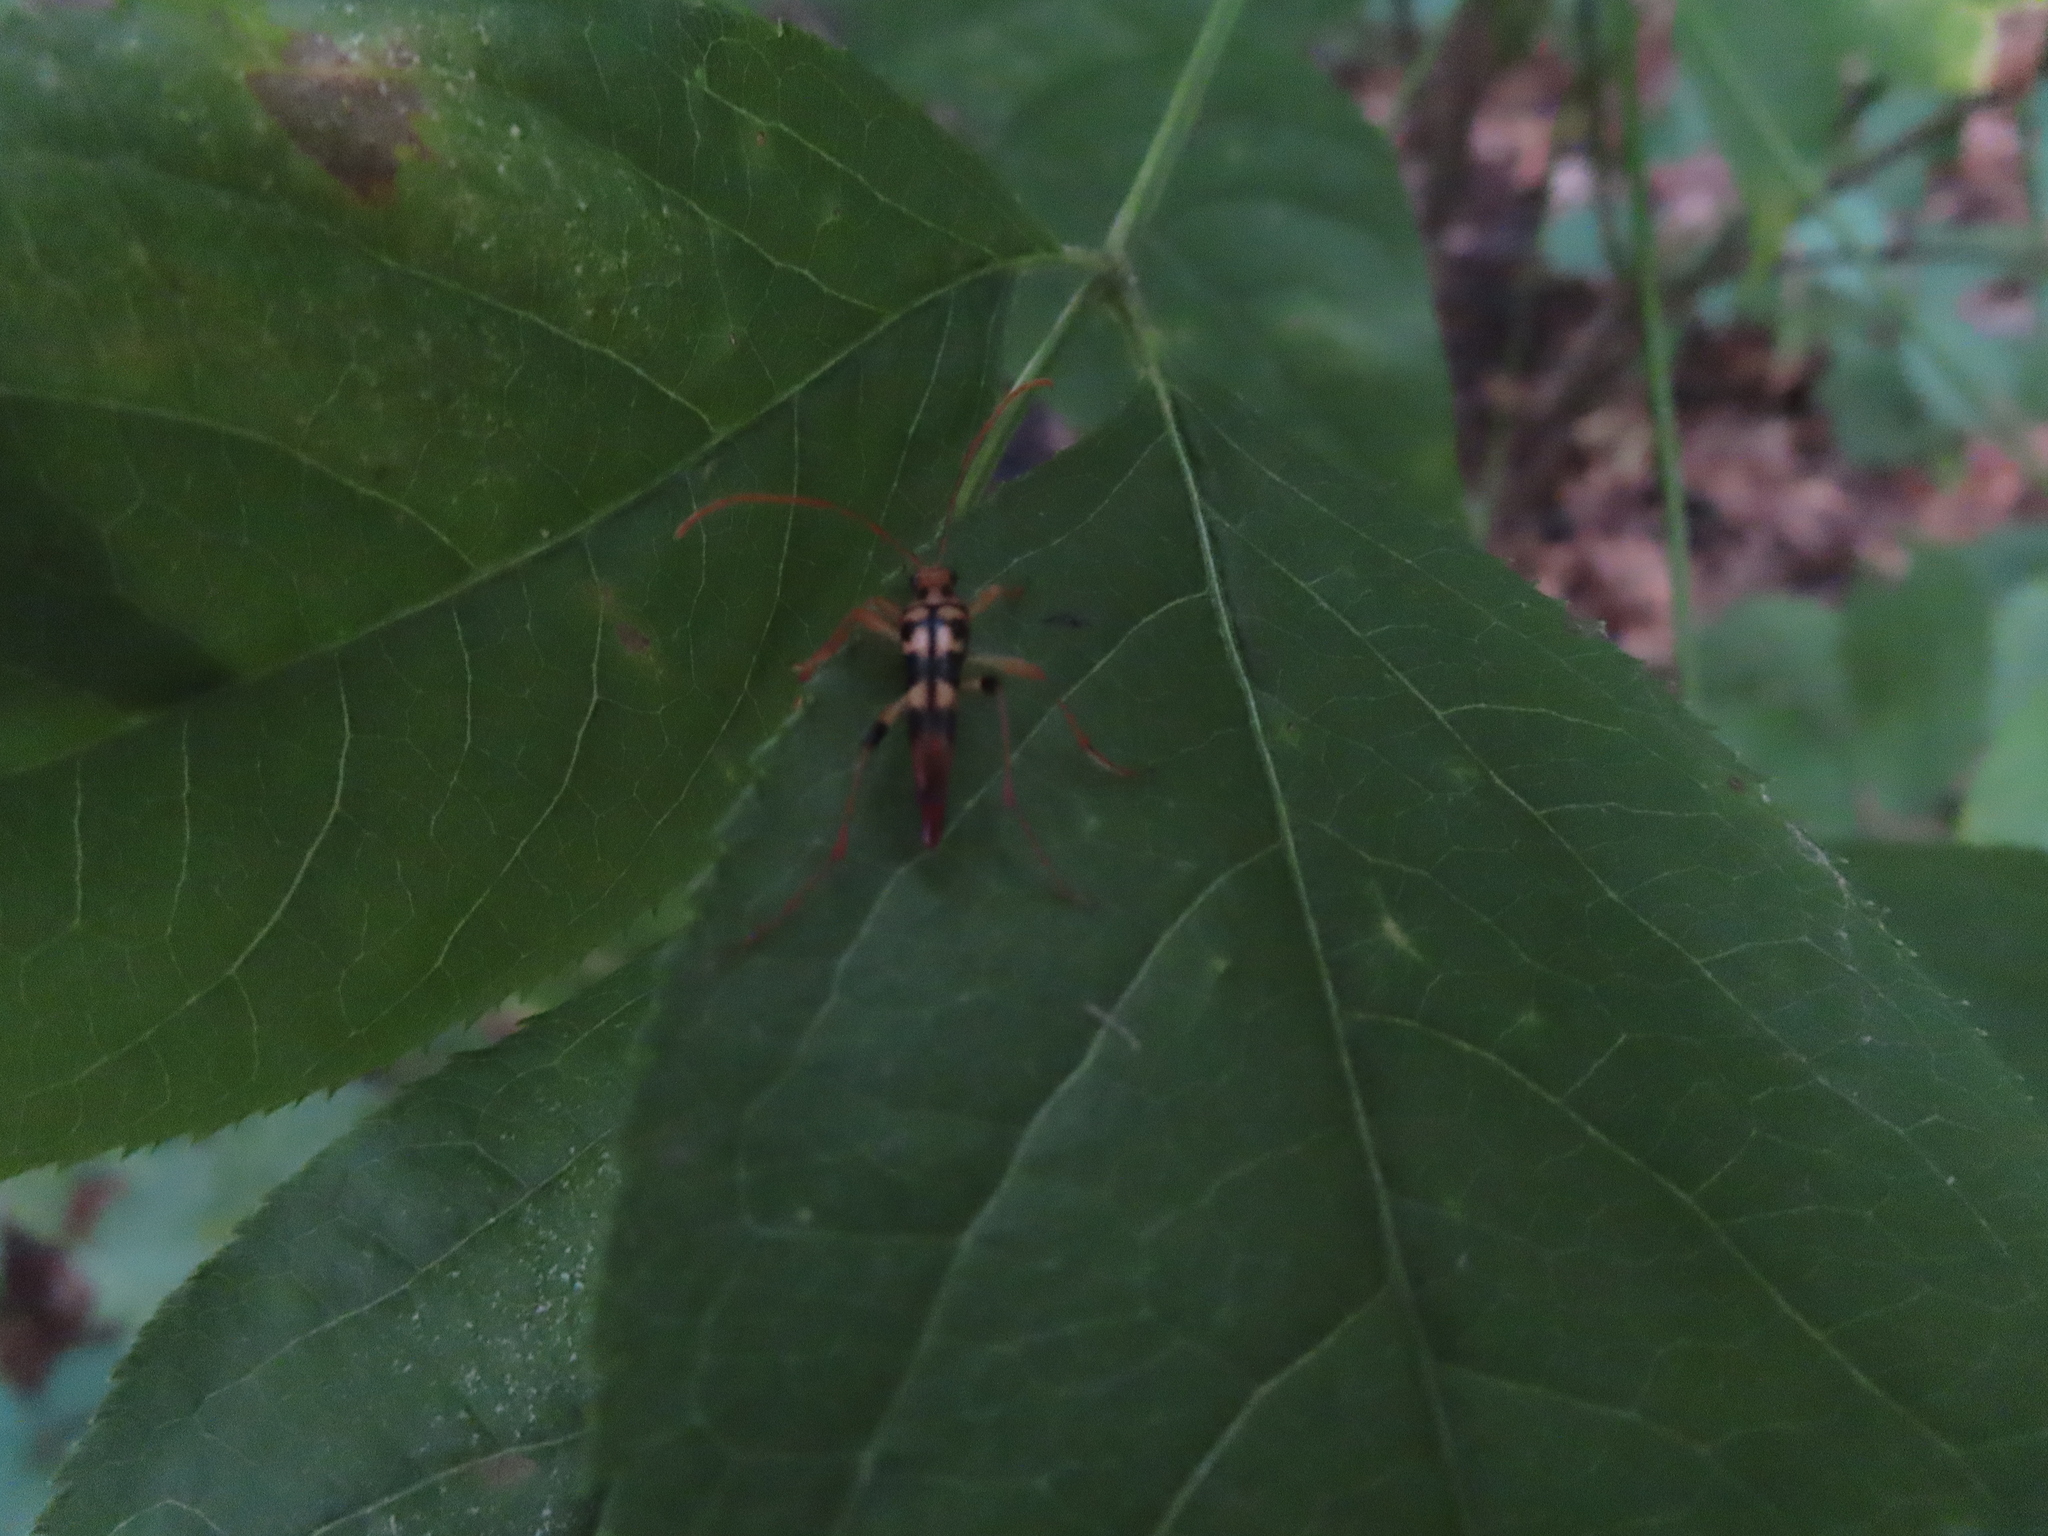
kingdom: Animalia
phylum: Arthropoda
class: Insecta
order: Coleoptera
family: Cerambycidae
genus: Strangalia
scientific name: Strangalia luteicornis
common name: Yellow-horned flower longhorn beetle
